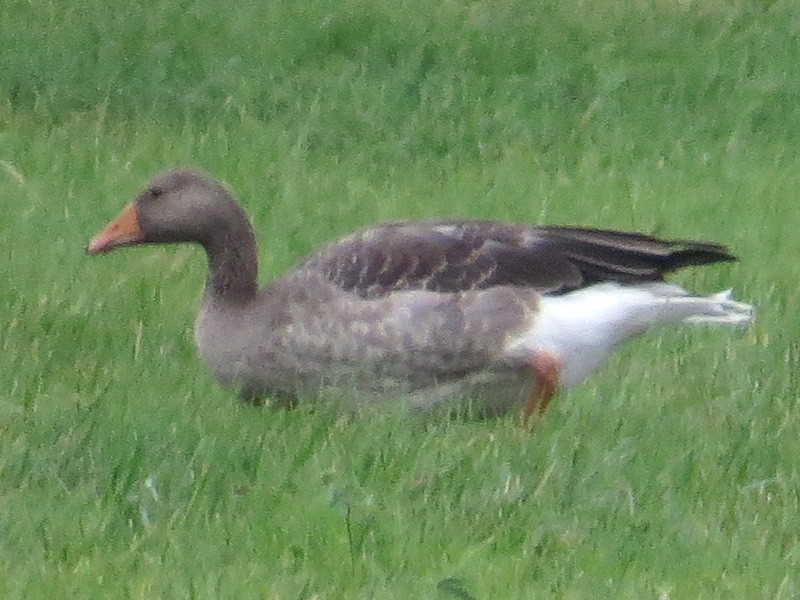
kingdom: Animalia
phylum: Chordata
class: Aves
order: Anseriformes
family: Anatidae
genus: Anser
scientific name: Anser anser
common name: Greylag goose
